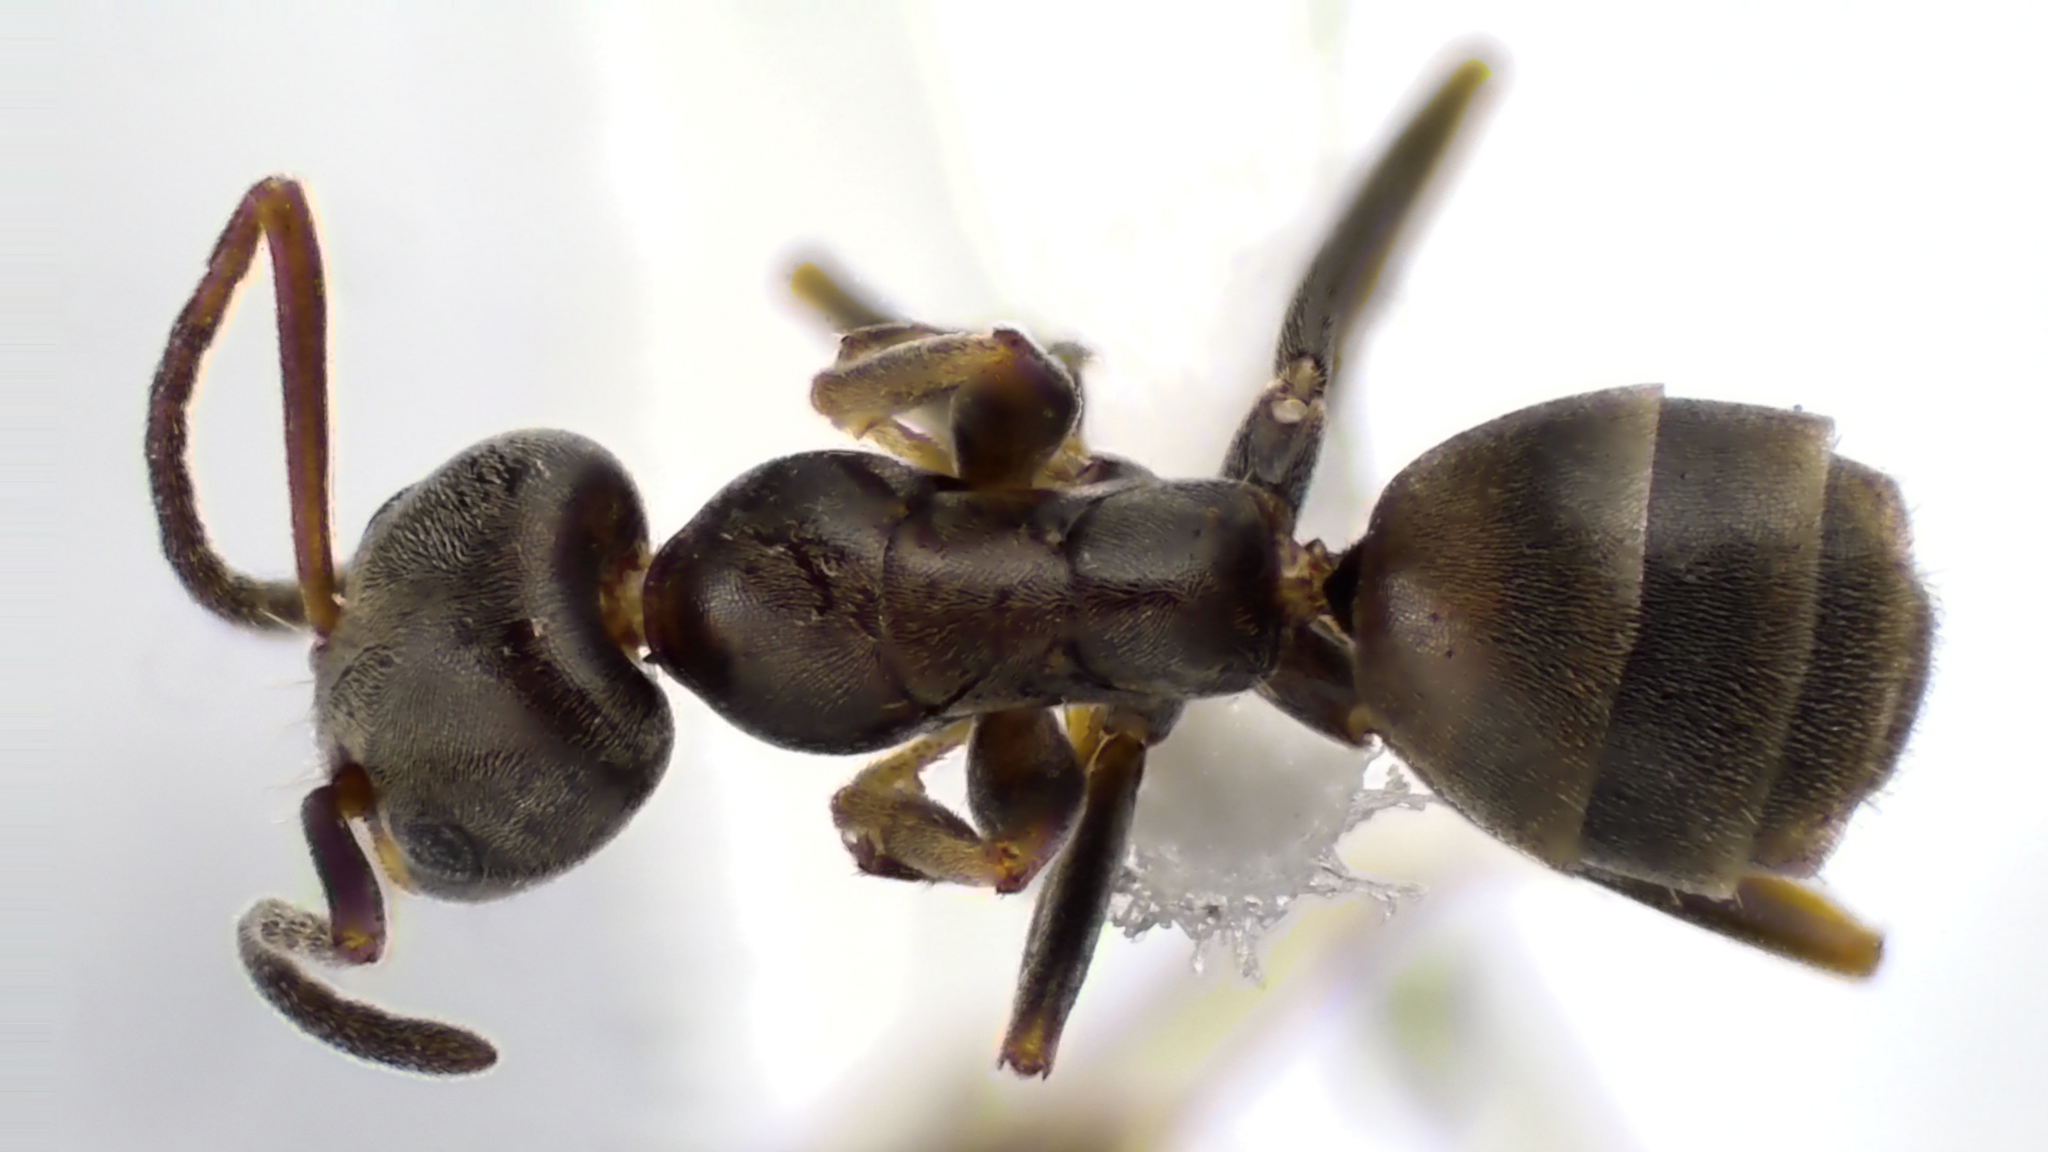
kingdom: Animalia
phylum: Arthropoda
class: Insecta
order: Hymenoptera
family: Formicidae
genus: Forelius
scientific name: Forelius pruinosus
